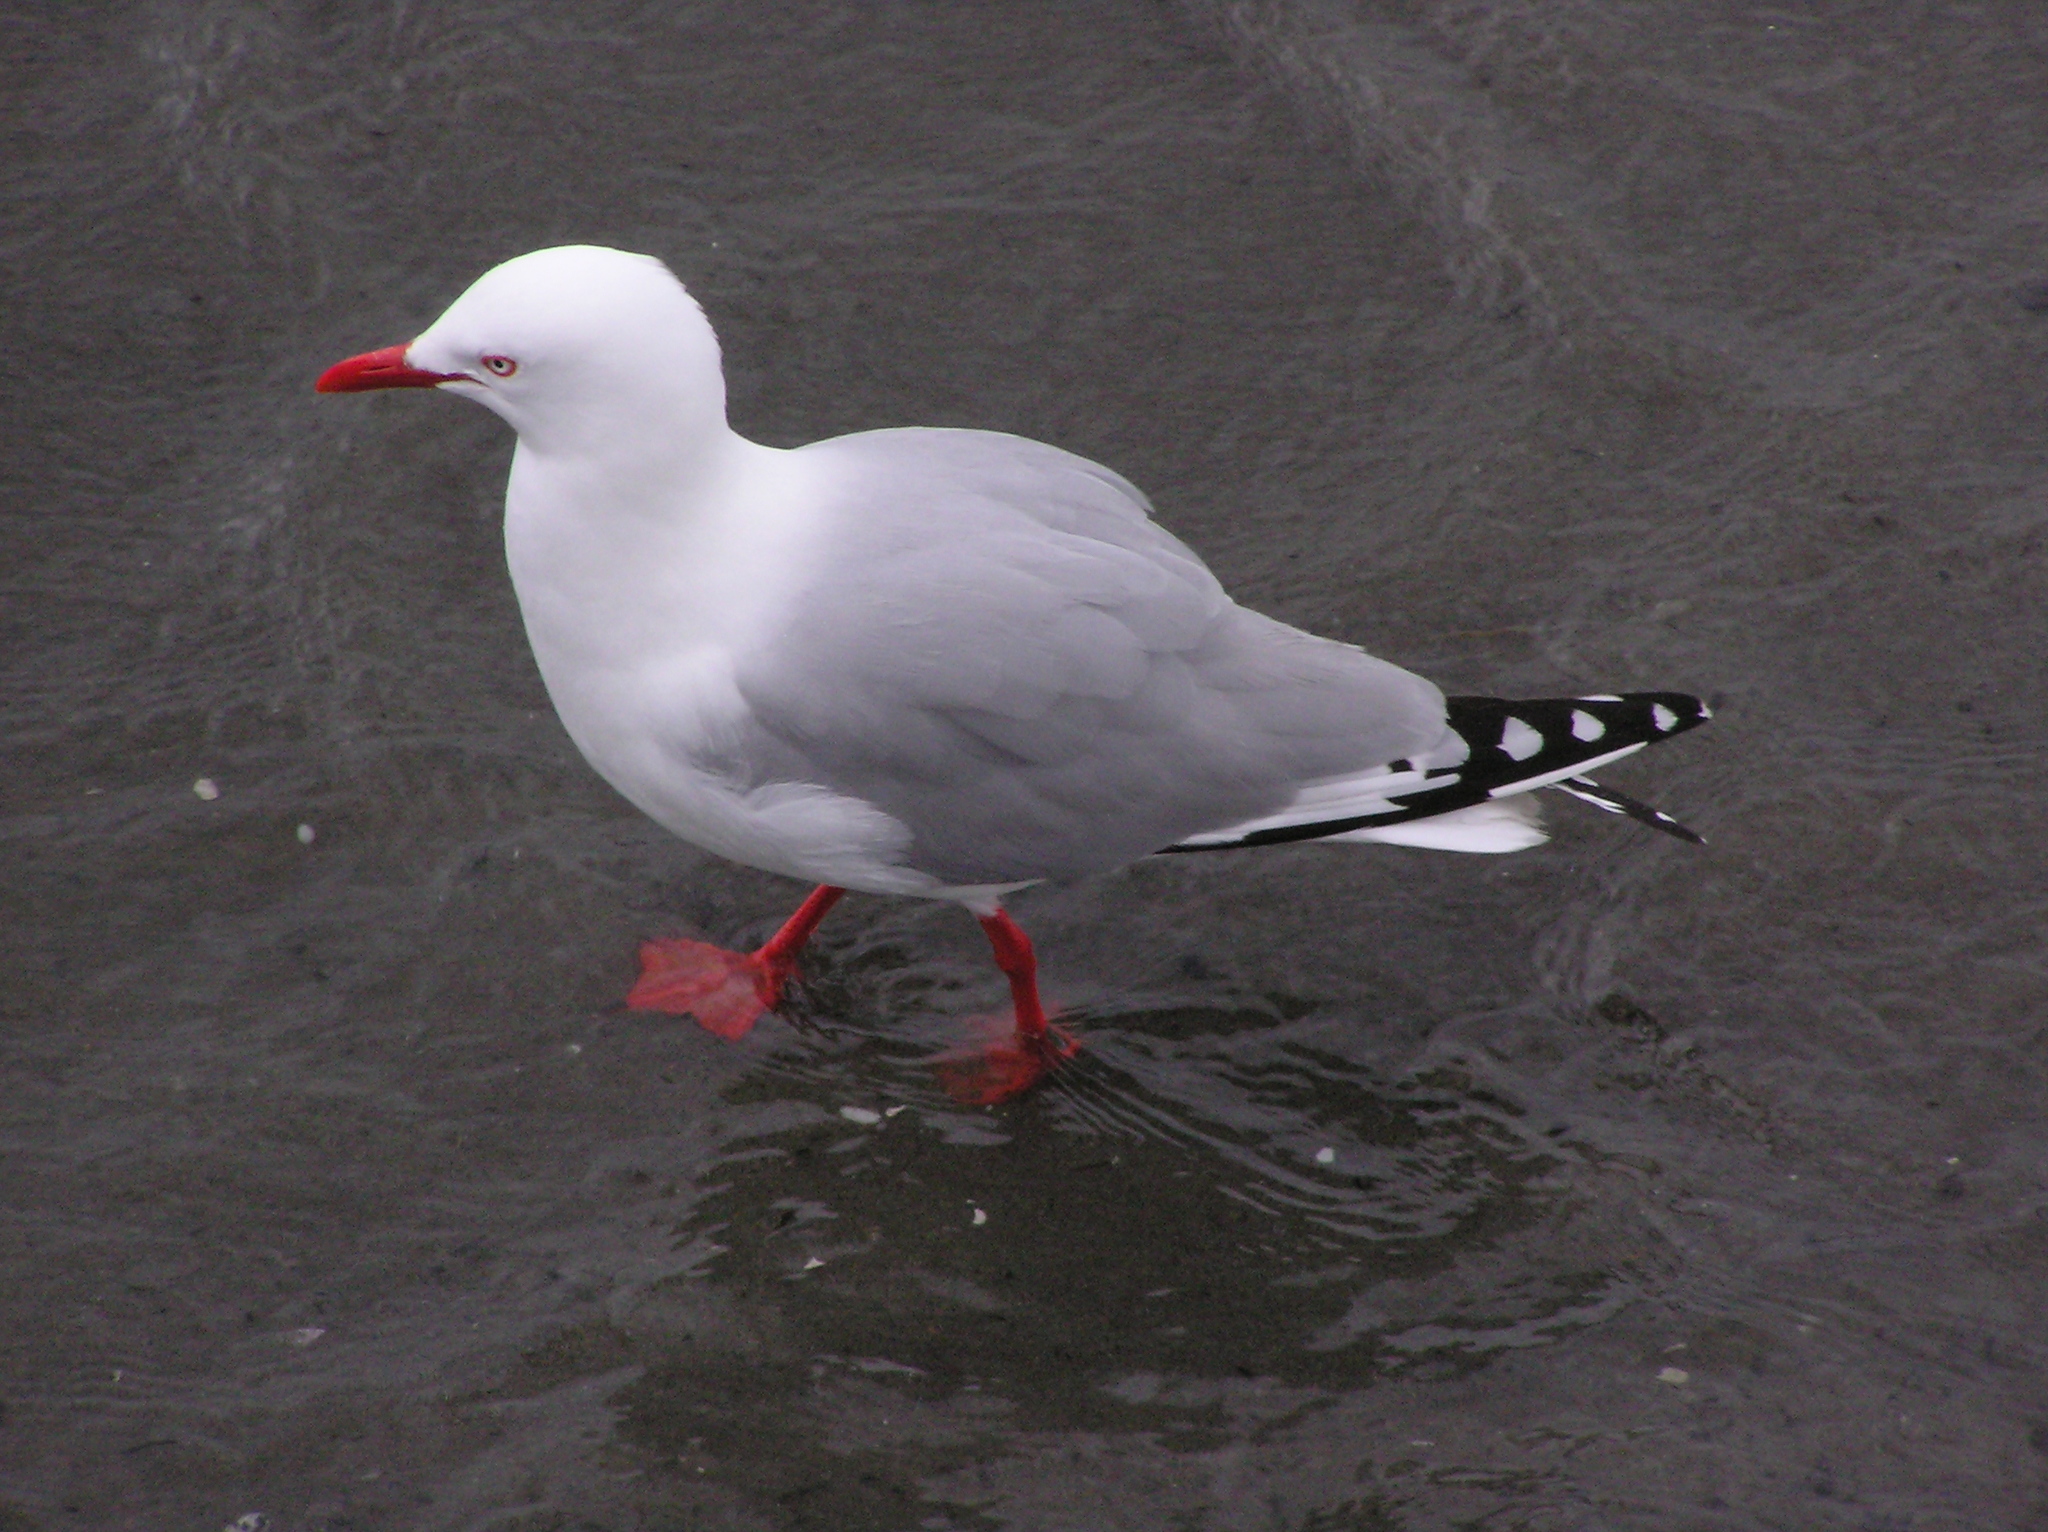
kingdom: Animalia
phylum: Chordata
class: Aves
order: Charadriiformes
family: Laridae
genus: Chroicocephalus
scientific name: Chroicocephalus novaehollandiae
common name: Silver gull
